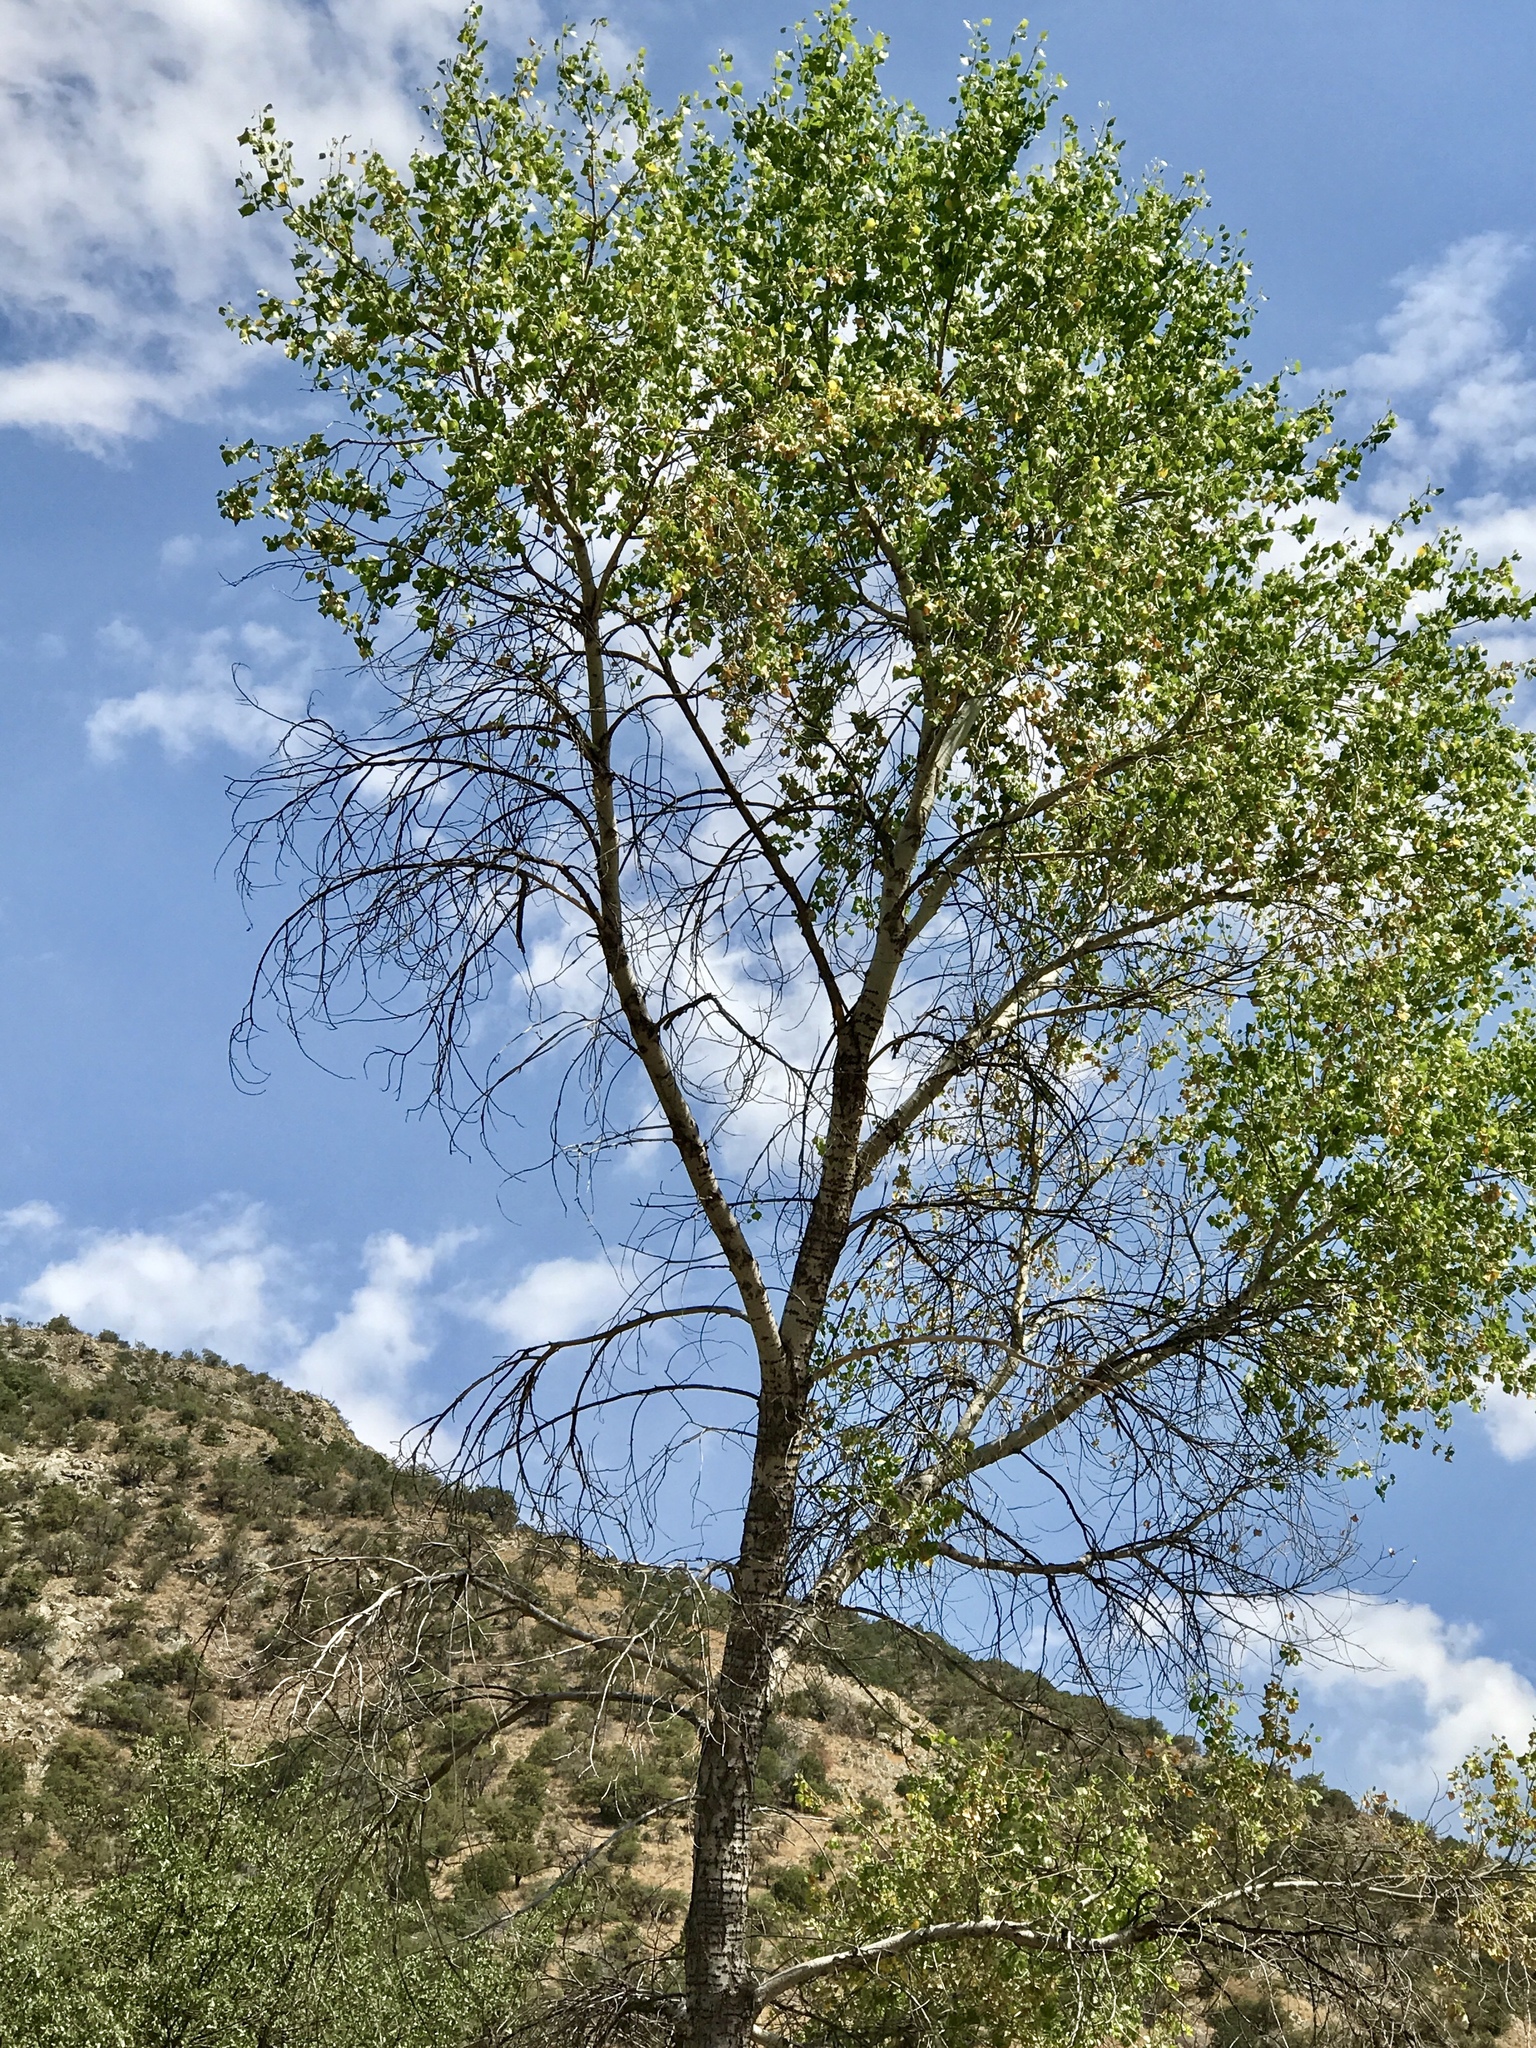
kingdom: Plantae
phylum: Tracheophyta
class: Magnoliopsida
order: Malpighiales
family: Salicaceae
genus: Populus
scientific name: Populus fremontii
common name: Fremont's cottonwood
